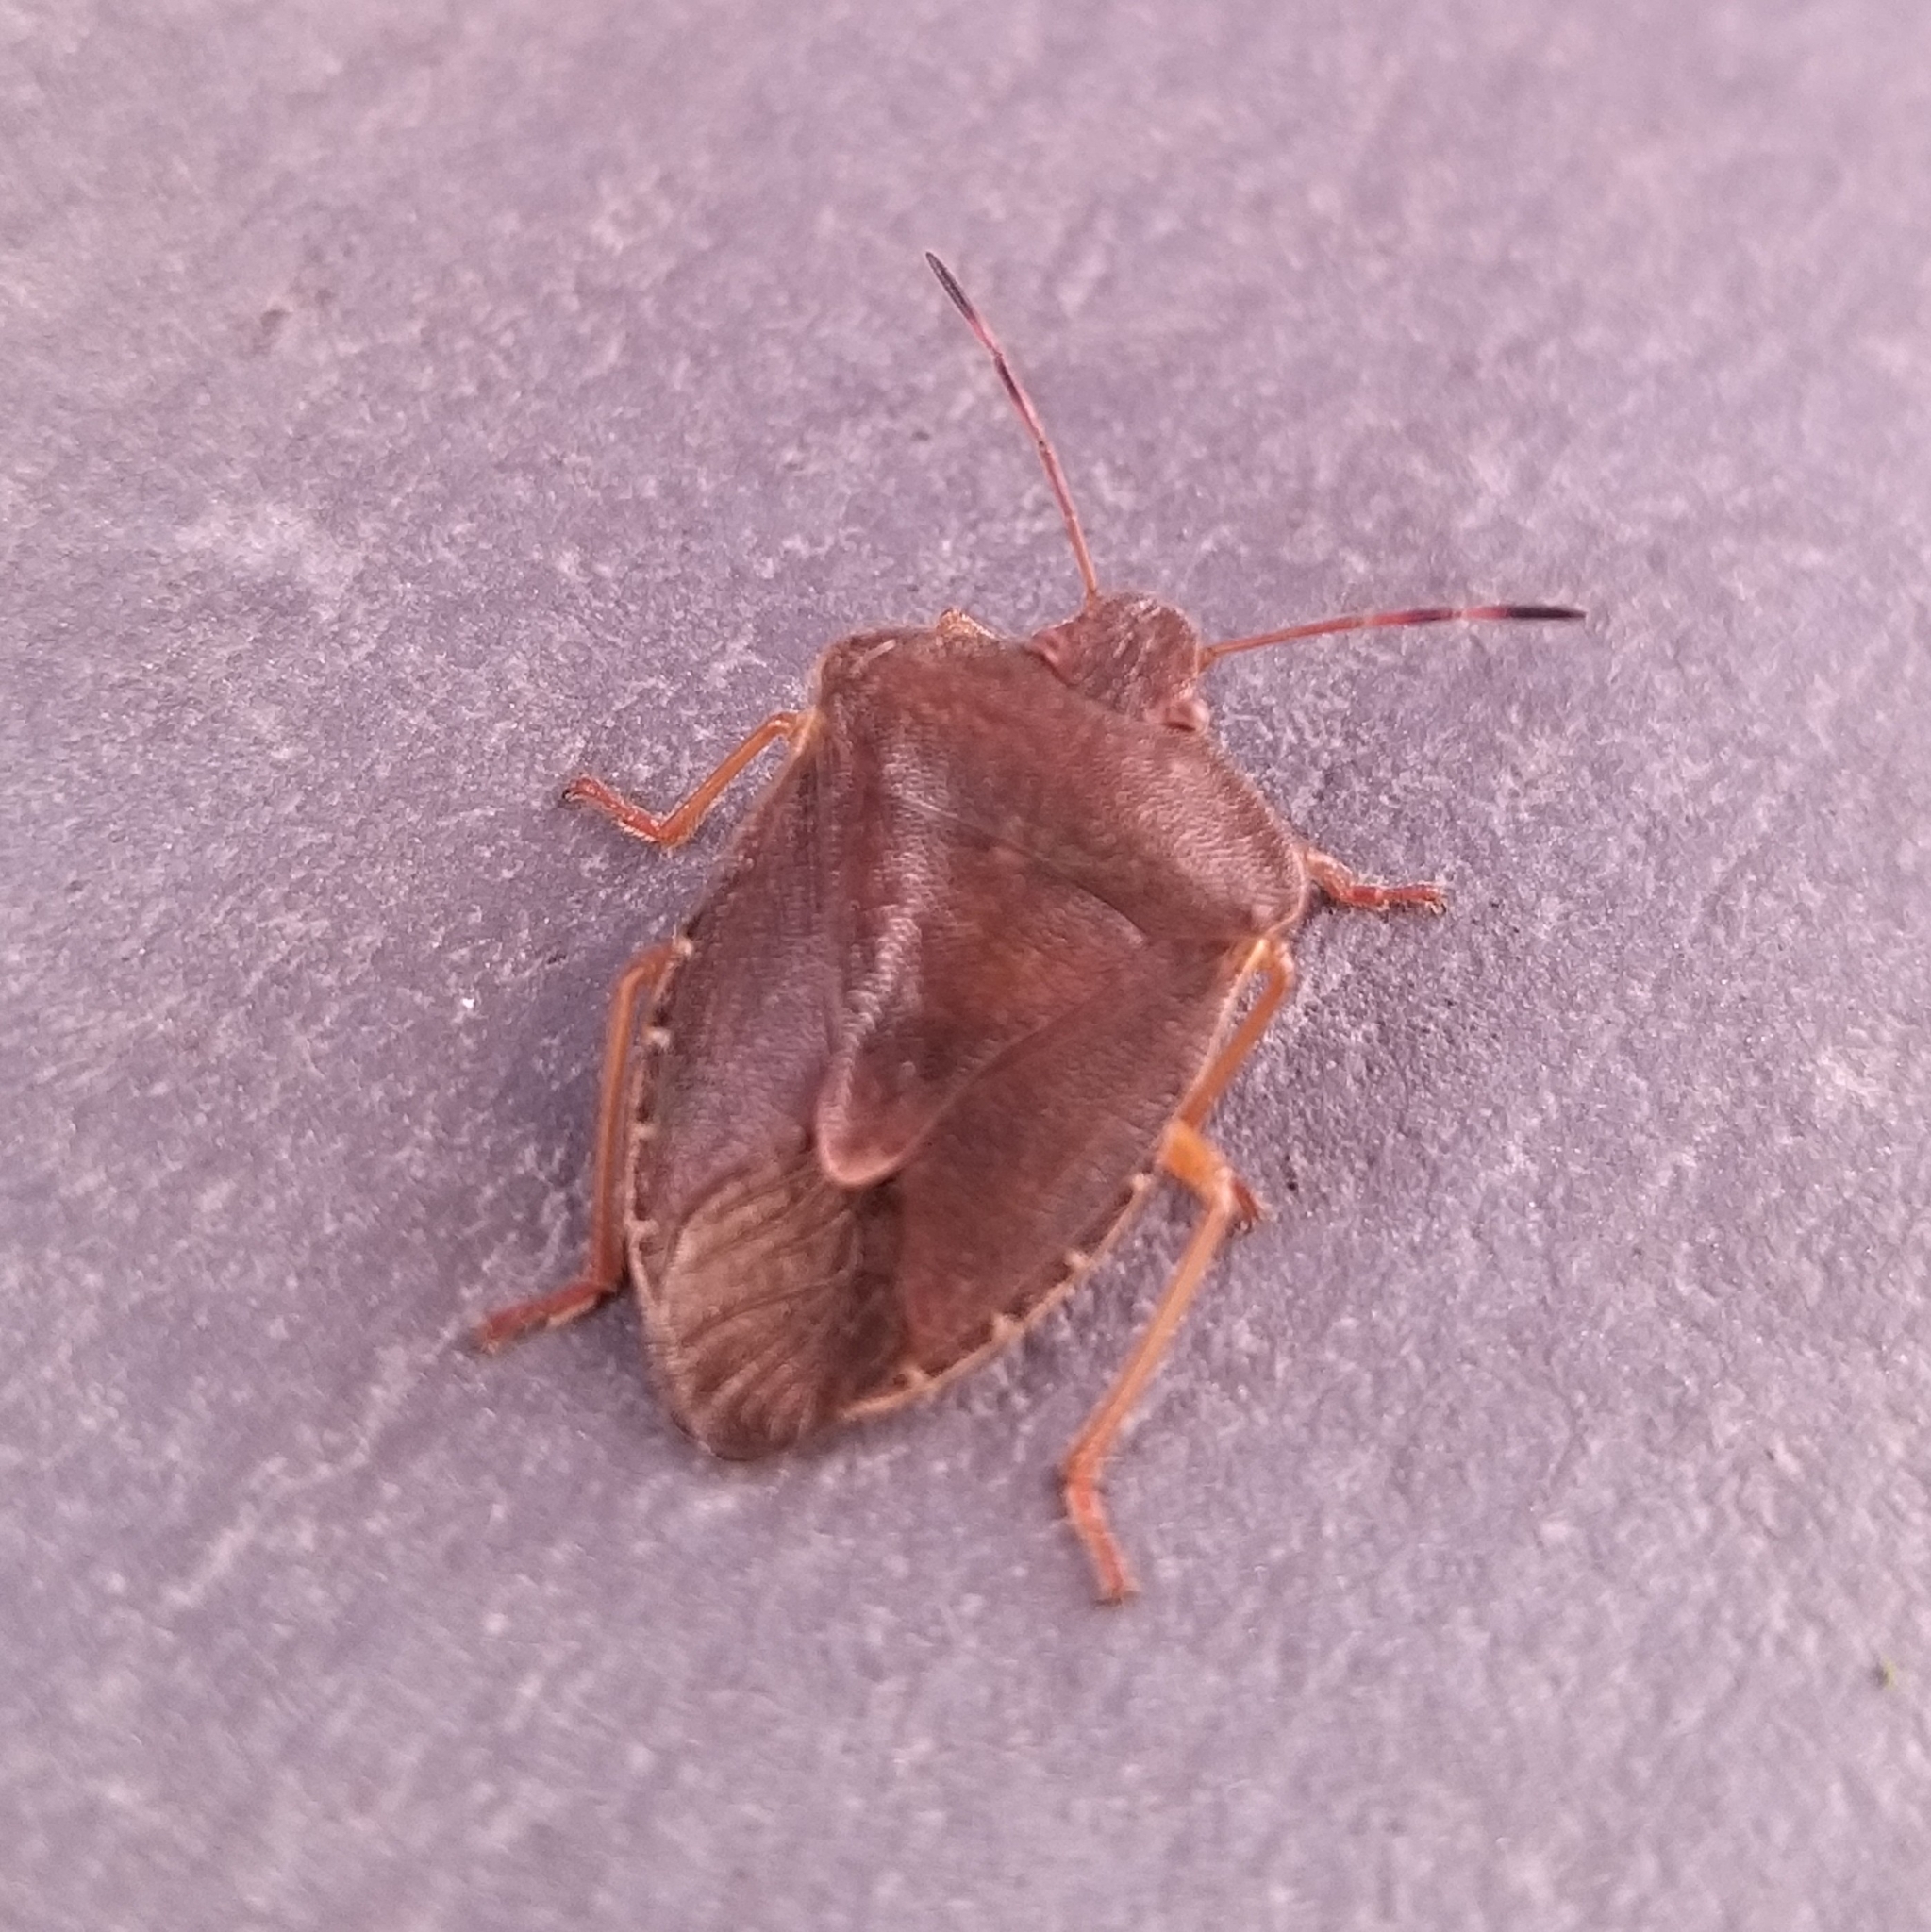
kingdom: Animalia
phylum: Arthropoda
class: Insecta
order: Hemiptera
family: Pentatomidae
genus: Palomena
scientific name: Palomena prasina
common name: Green shieldbug
